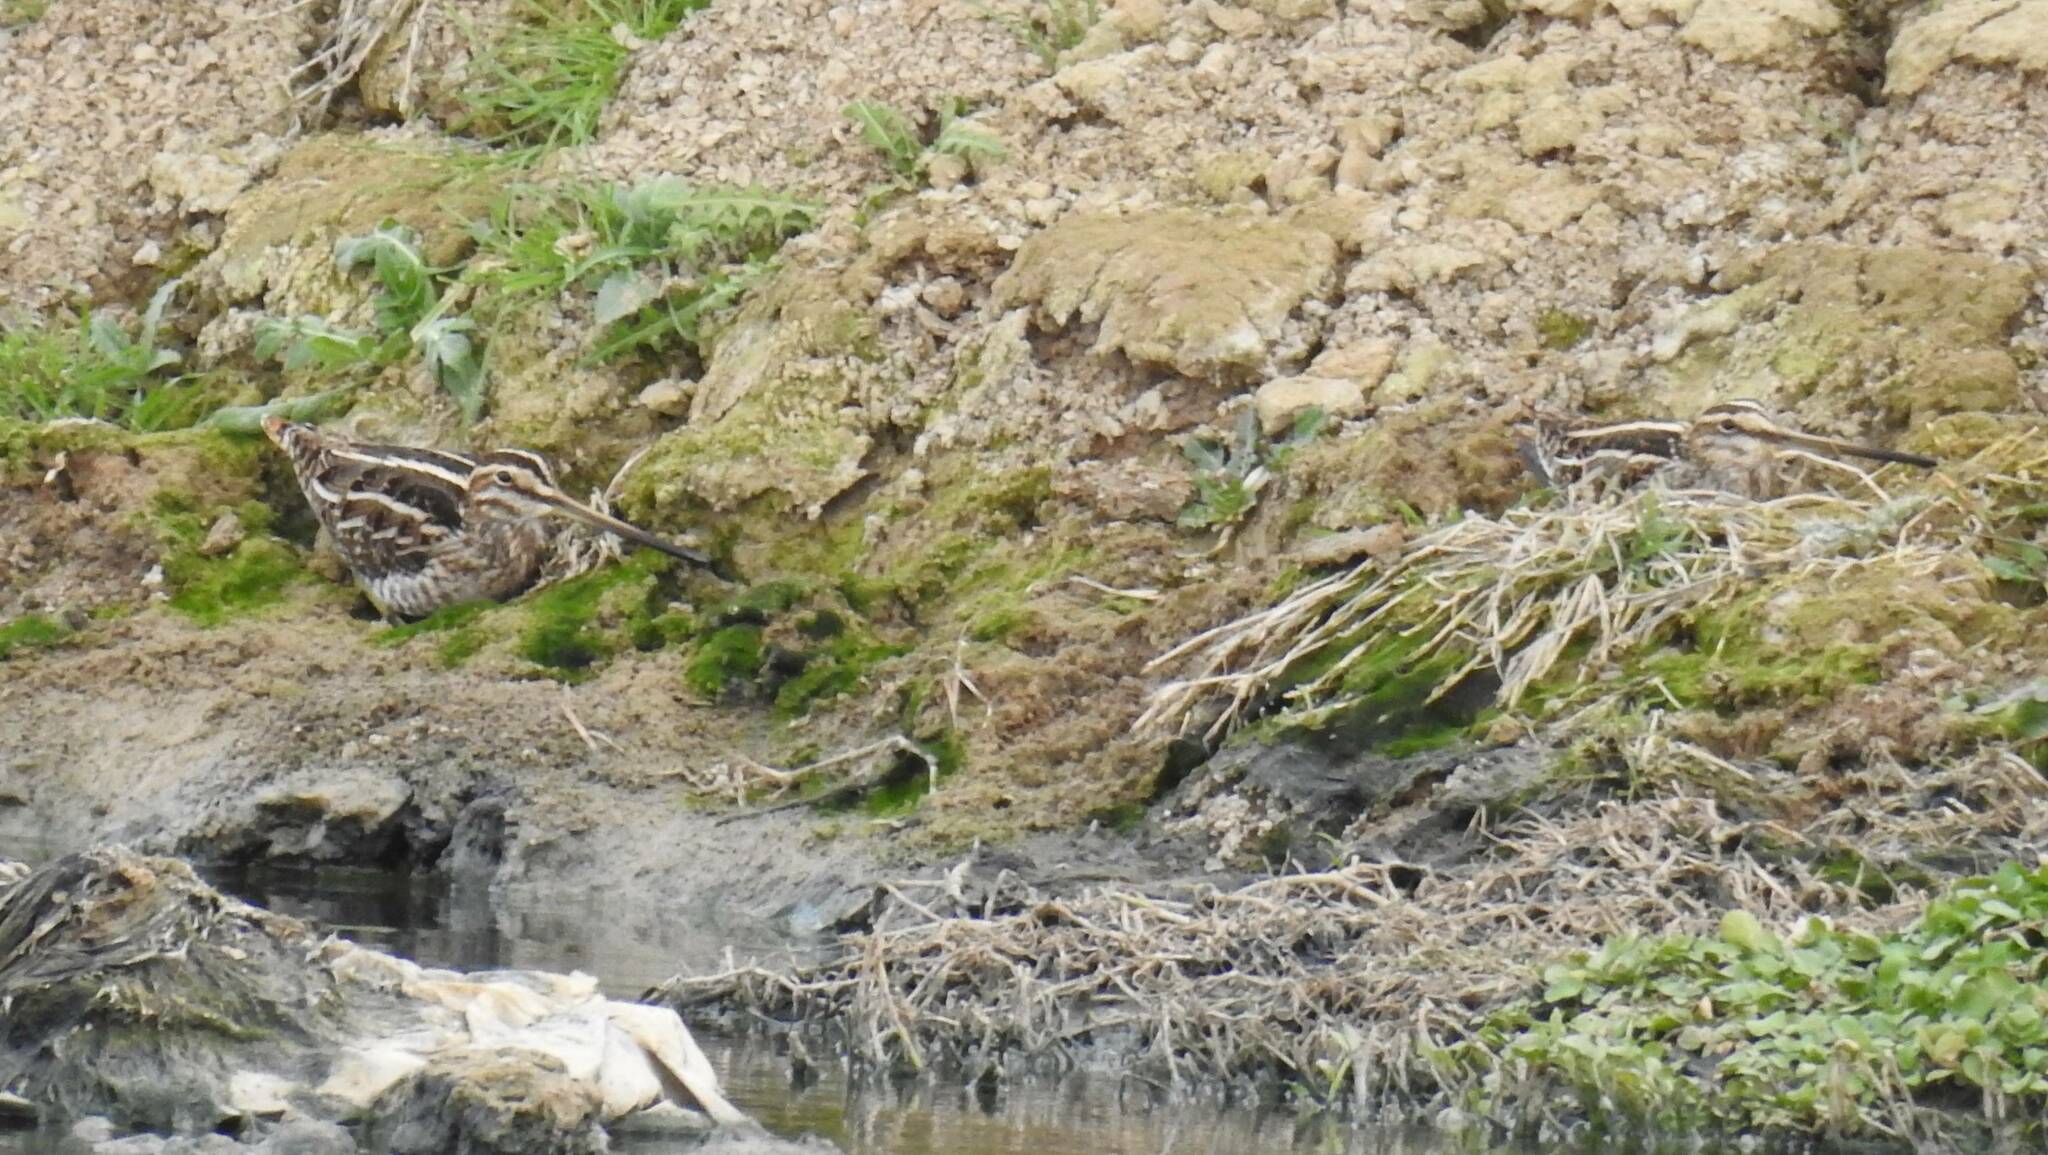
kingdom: Animalia
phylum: Chordata
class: Aves
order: Charadriiformes
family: Scolopacidae
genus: Gallinago
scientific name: Gallinago gallinago
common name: Common snipe
